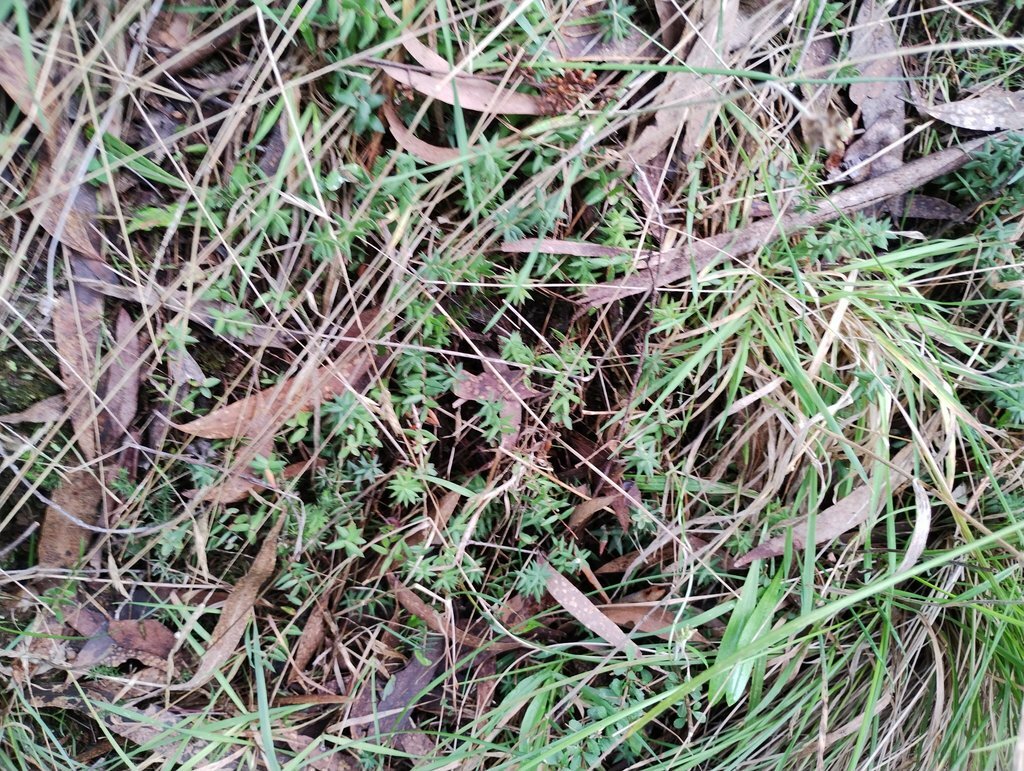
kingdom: Plantae
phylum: Tracheophyta
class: Magnoliopsida
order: Ericales
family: Ericaceae
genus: Acrotriche
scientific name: Acrotriche serrulata
